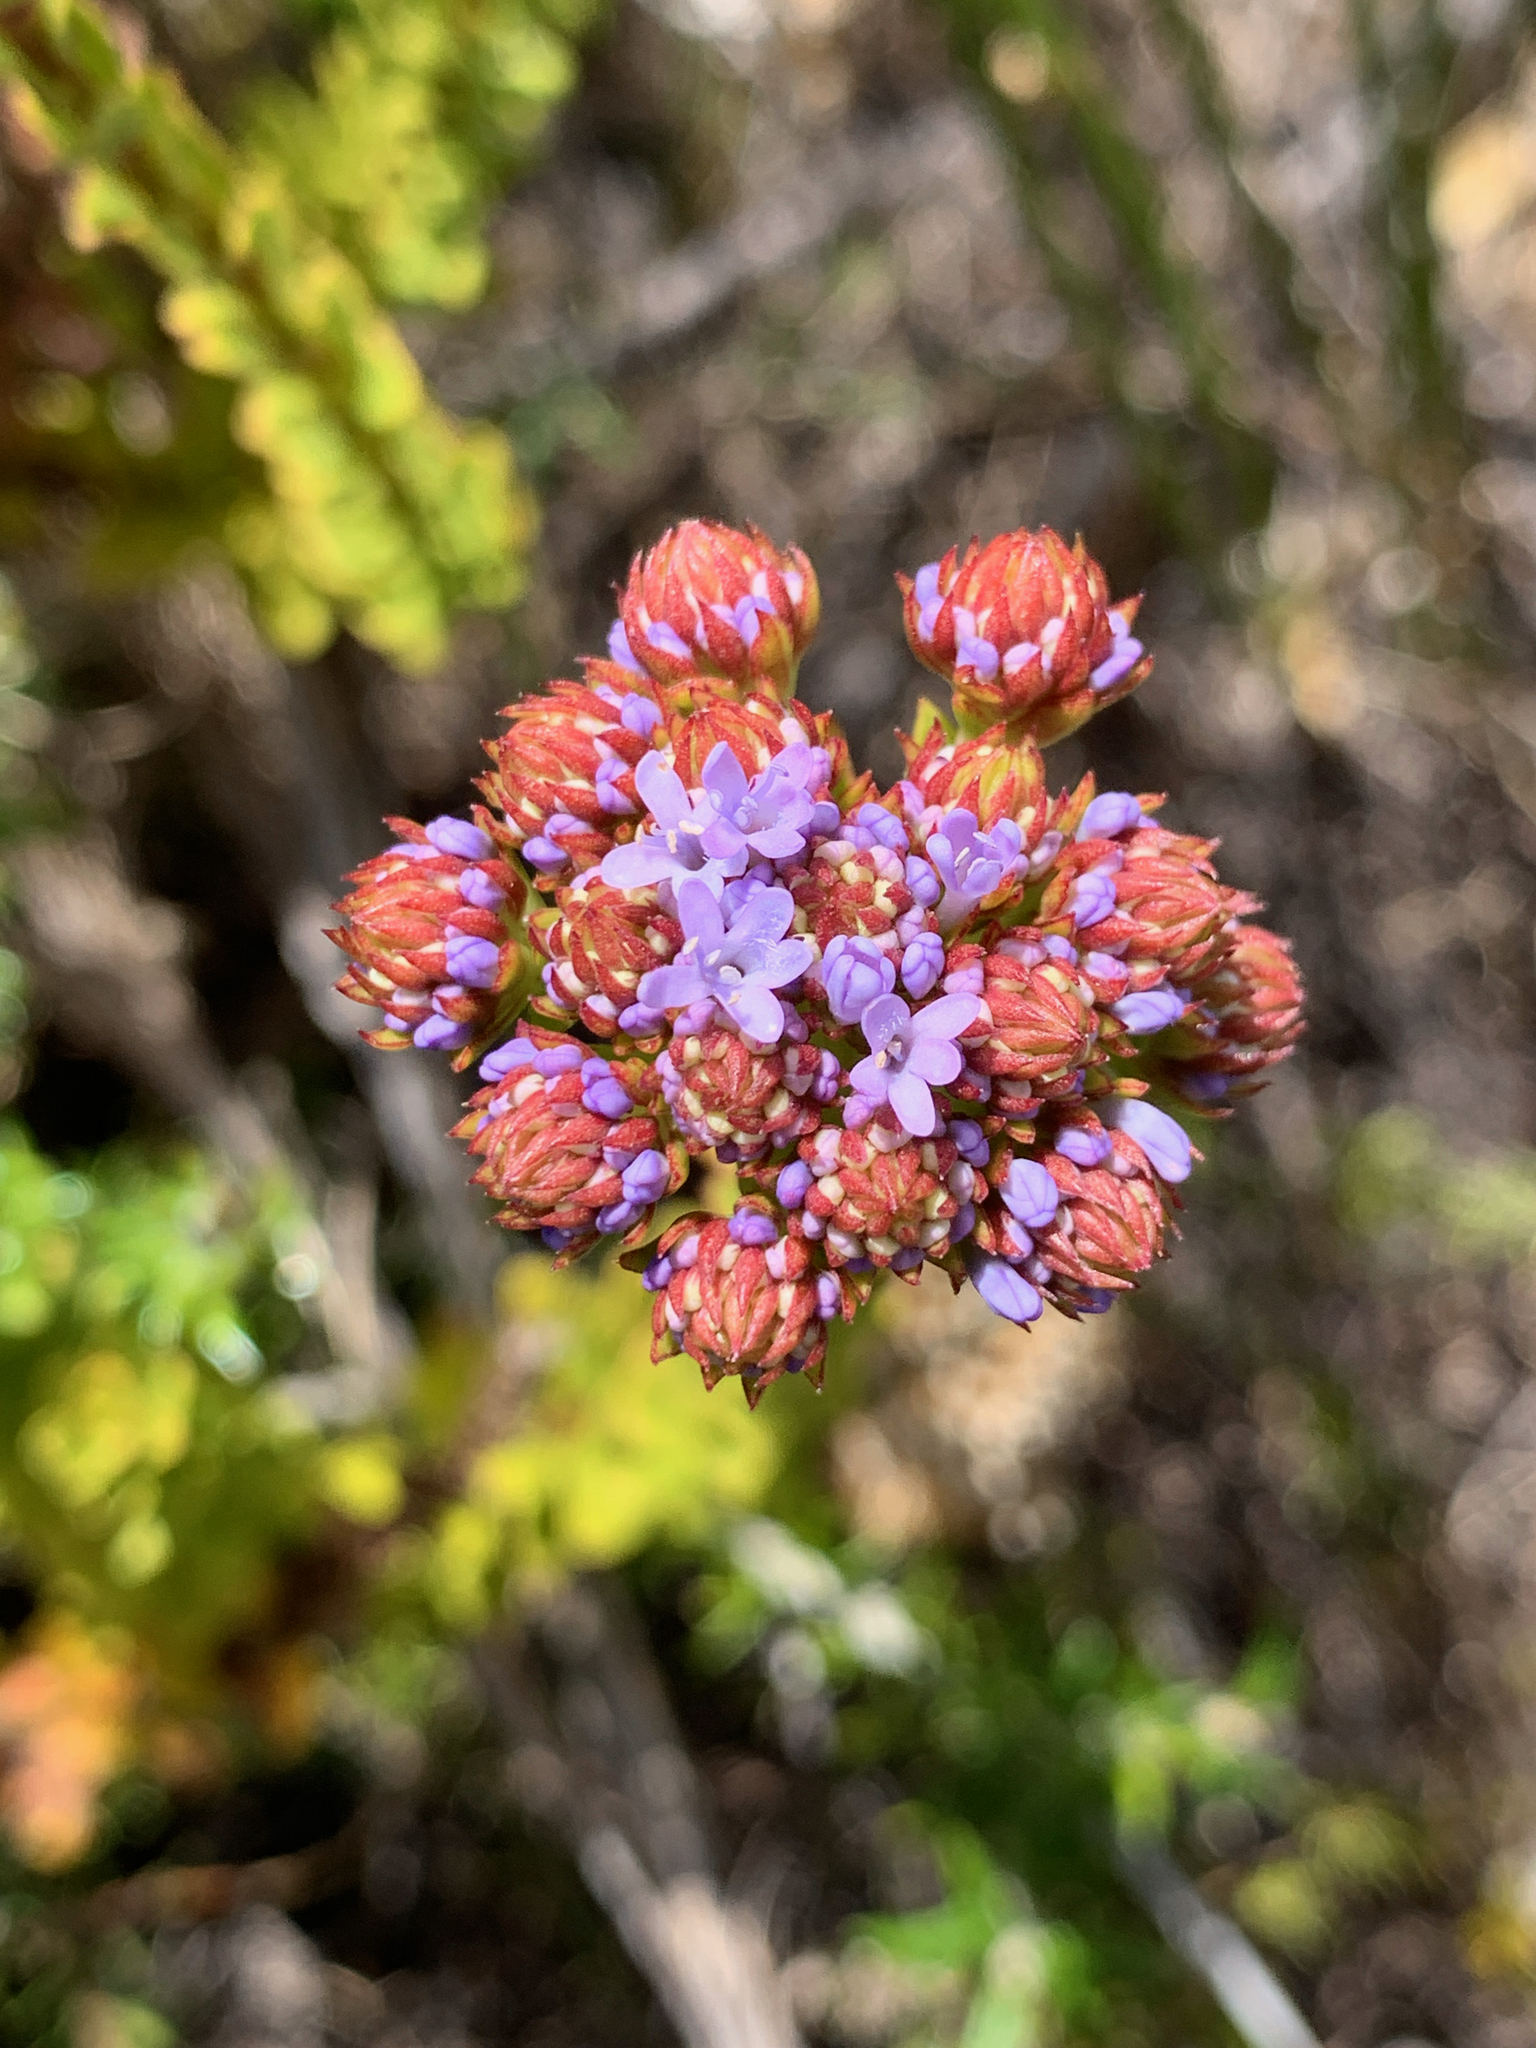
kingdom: Plantae
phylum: Tracheophyta
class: Magnoliopsida
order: Lamiales
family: Scrophulariaceae
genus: Pseudoselago
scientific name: Pseudoselago serrata
